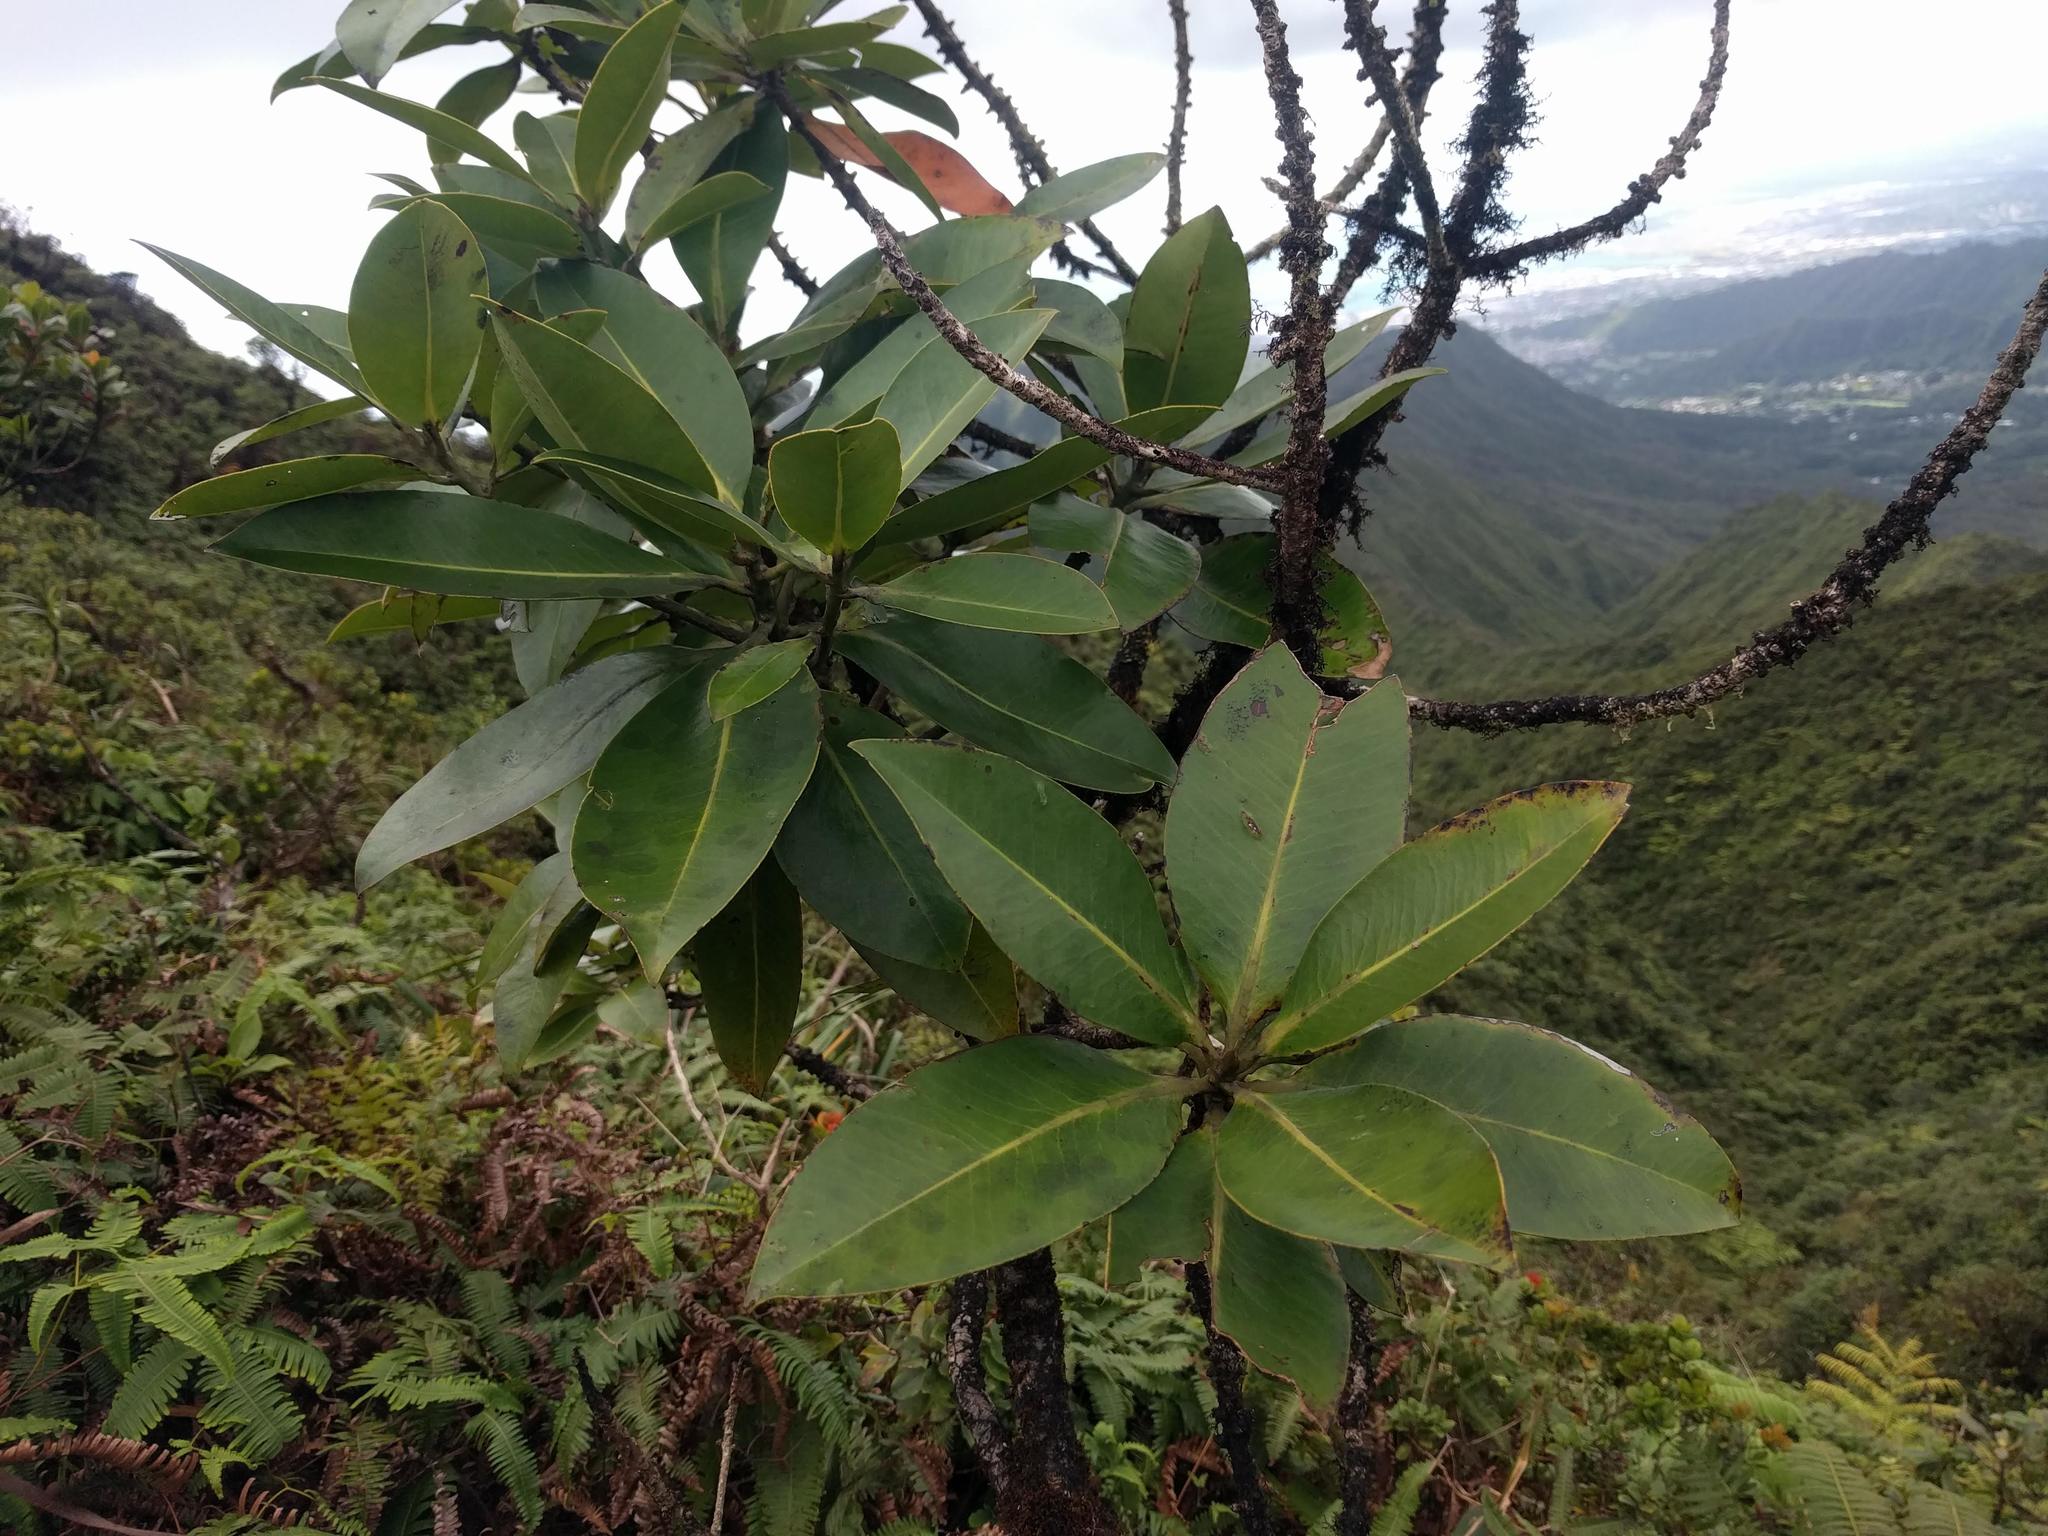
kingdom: Plantae
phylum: Tracheophyta
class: Magnoliopsida
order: Ericales
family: Primulaceae
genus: Myrsine
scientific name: Myrsine pukooensis
